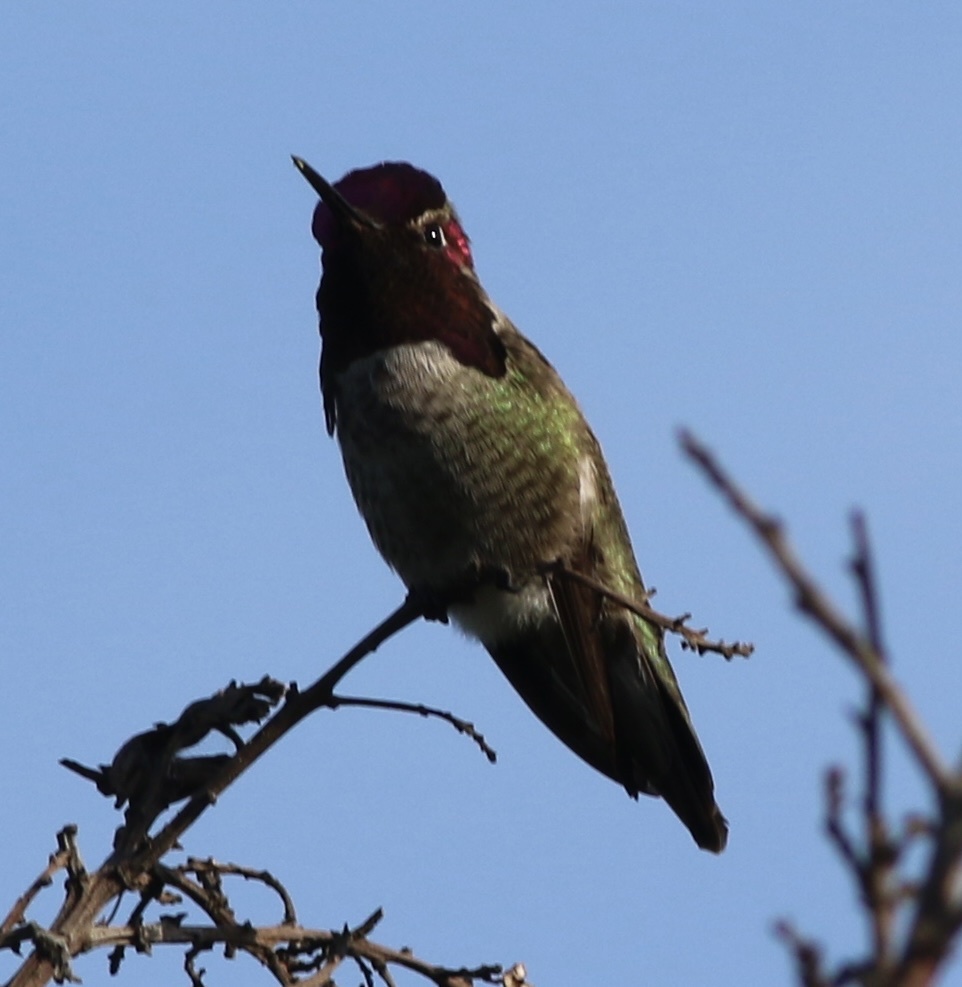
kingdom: Animalia
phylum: Chordata
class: Aves
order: Apodiformes
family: Trochilidae
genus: Calypte
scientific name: Calypte anna
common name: Anna's hummingbird
